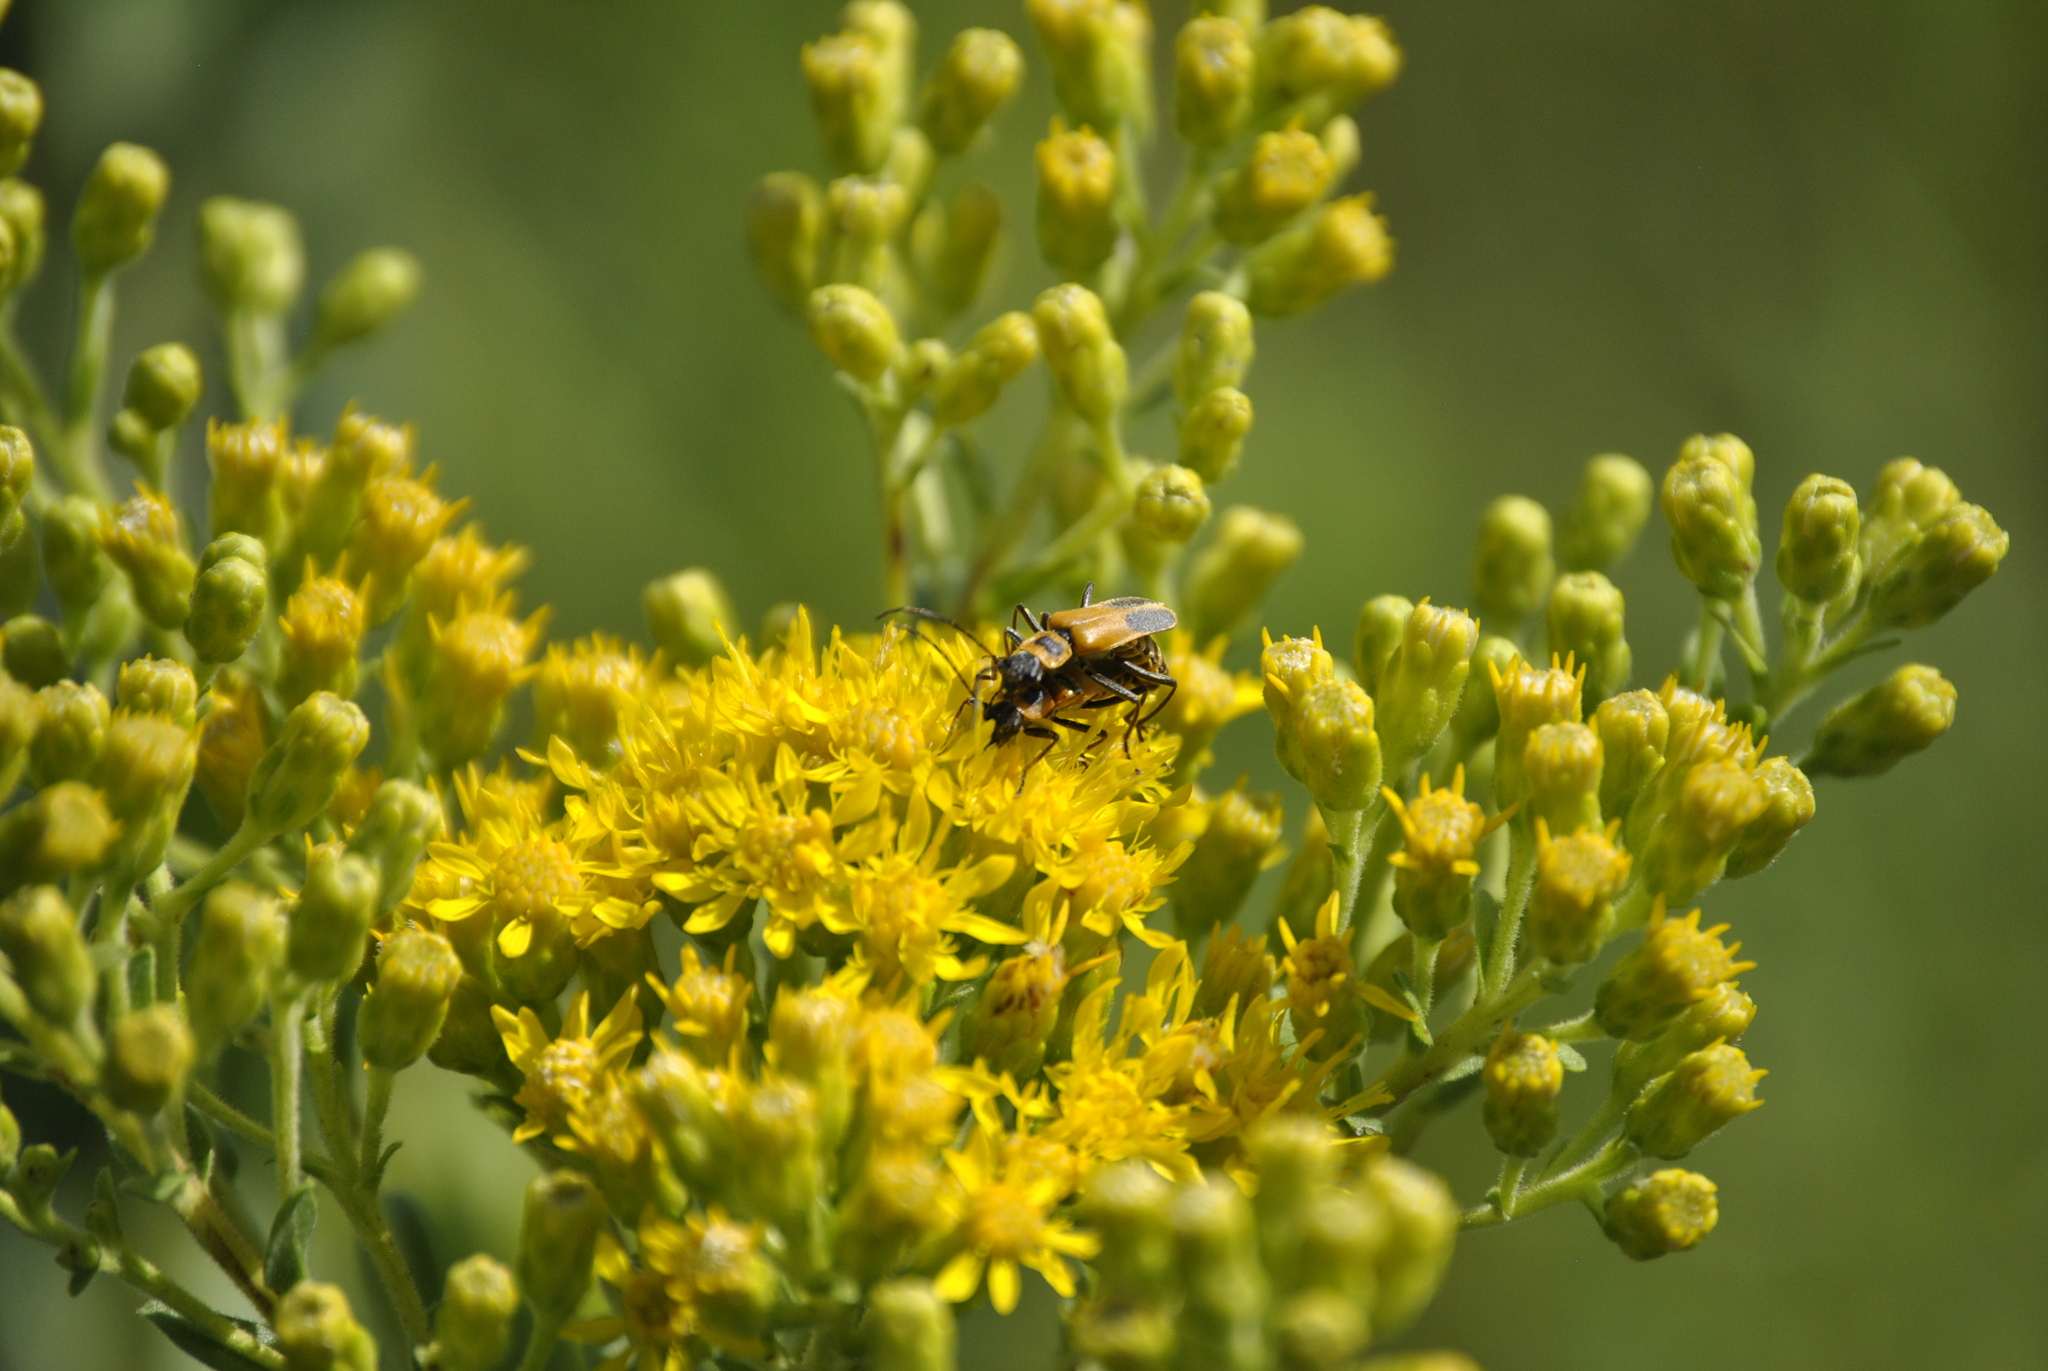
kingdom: Animalia
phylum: Arthropoda
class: Insecta
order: Coleoptera
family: Cantharidae
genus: Chauliognathus
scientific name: Chauliognathus pensylvanicus
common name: Goldenrod soldier beetle
